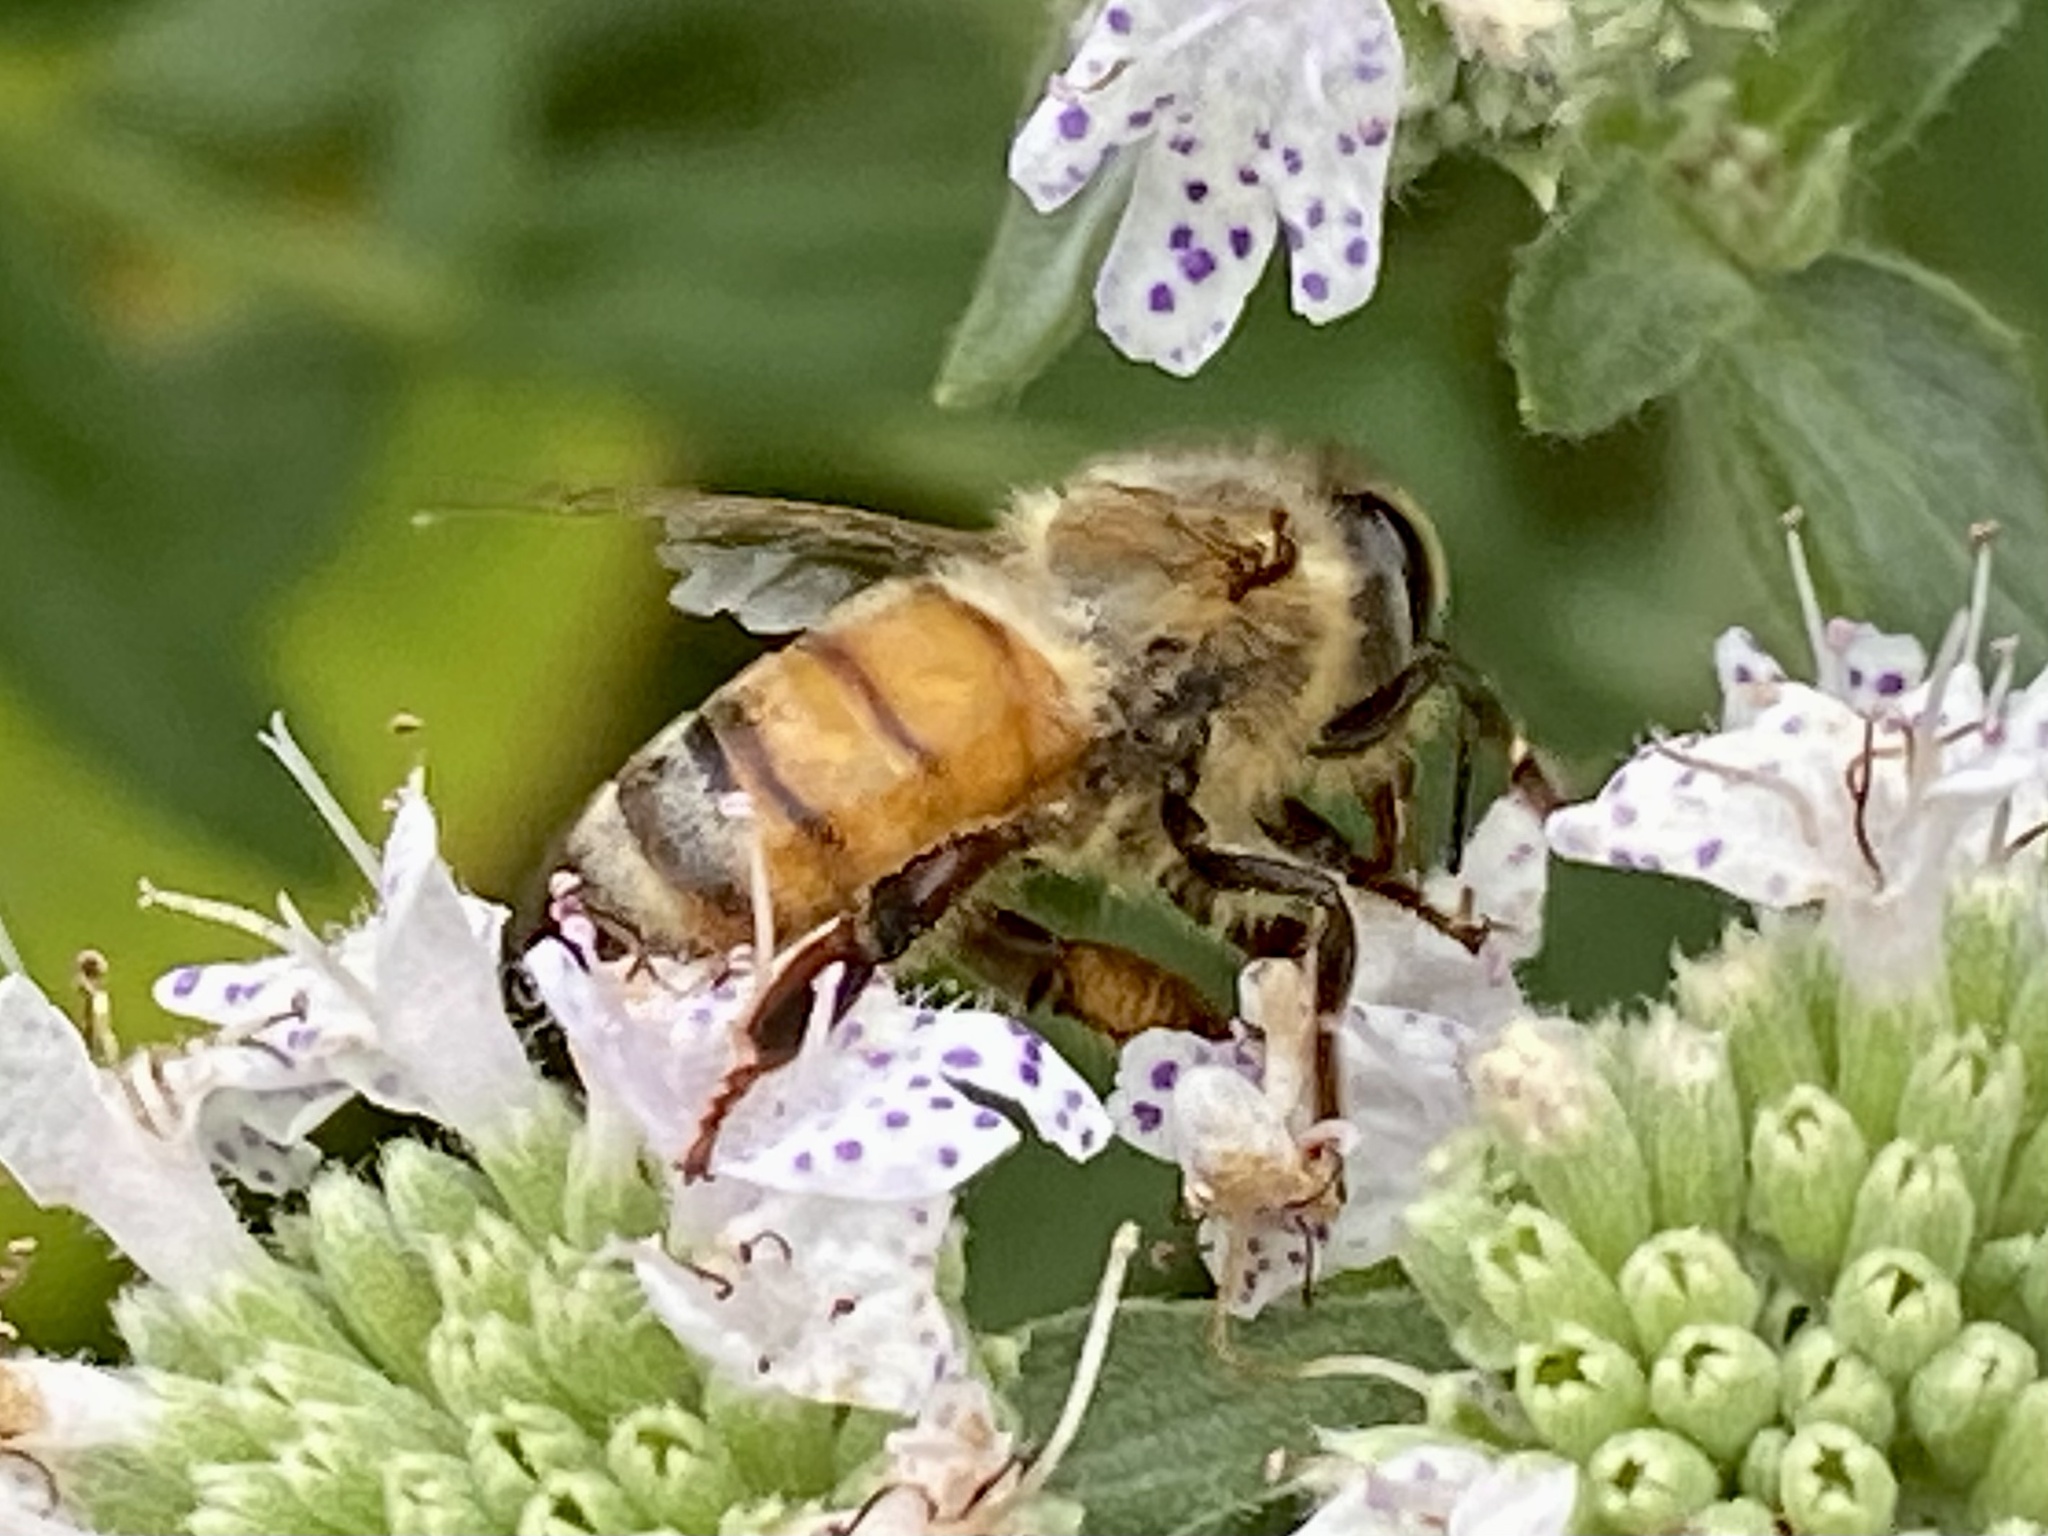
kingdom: Animalia
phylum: Arthropoda
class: Insecta
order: Hymenoptera
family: Apidae
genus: Apis
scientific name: Apis mellifera
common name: Honey bee
